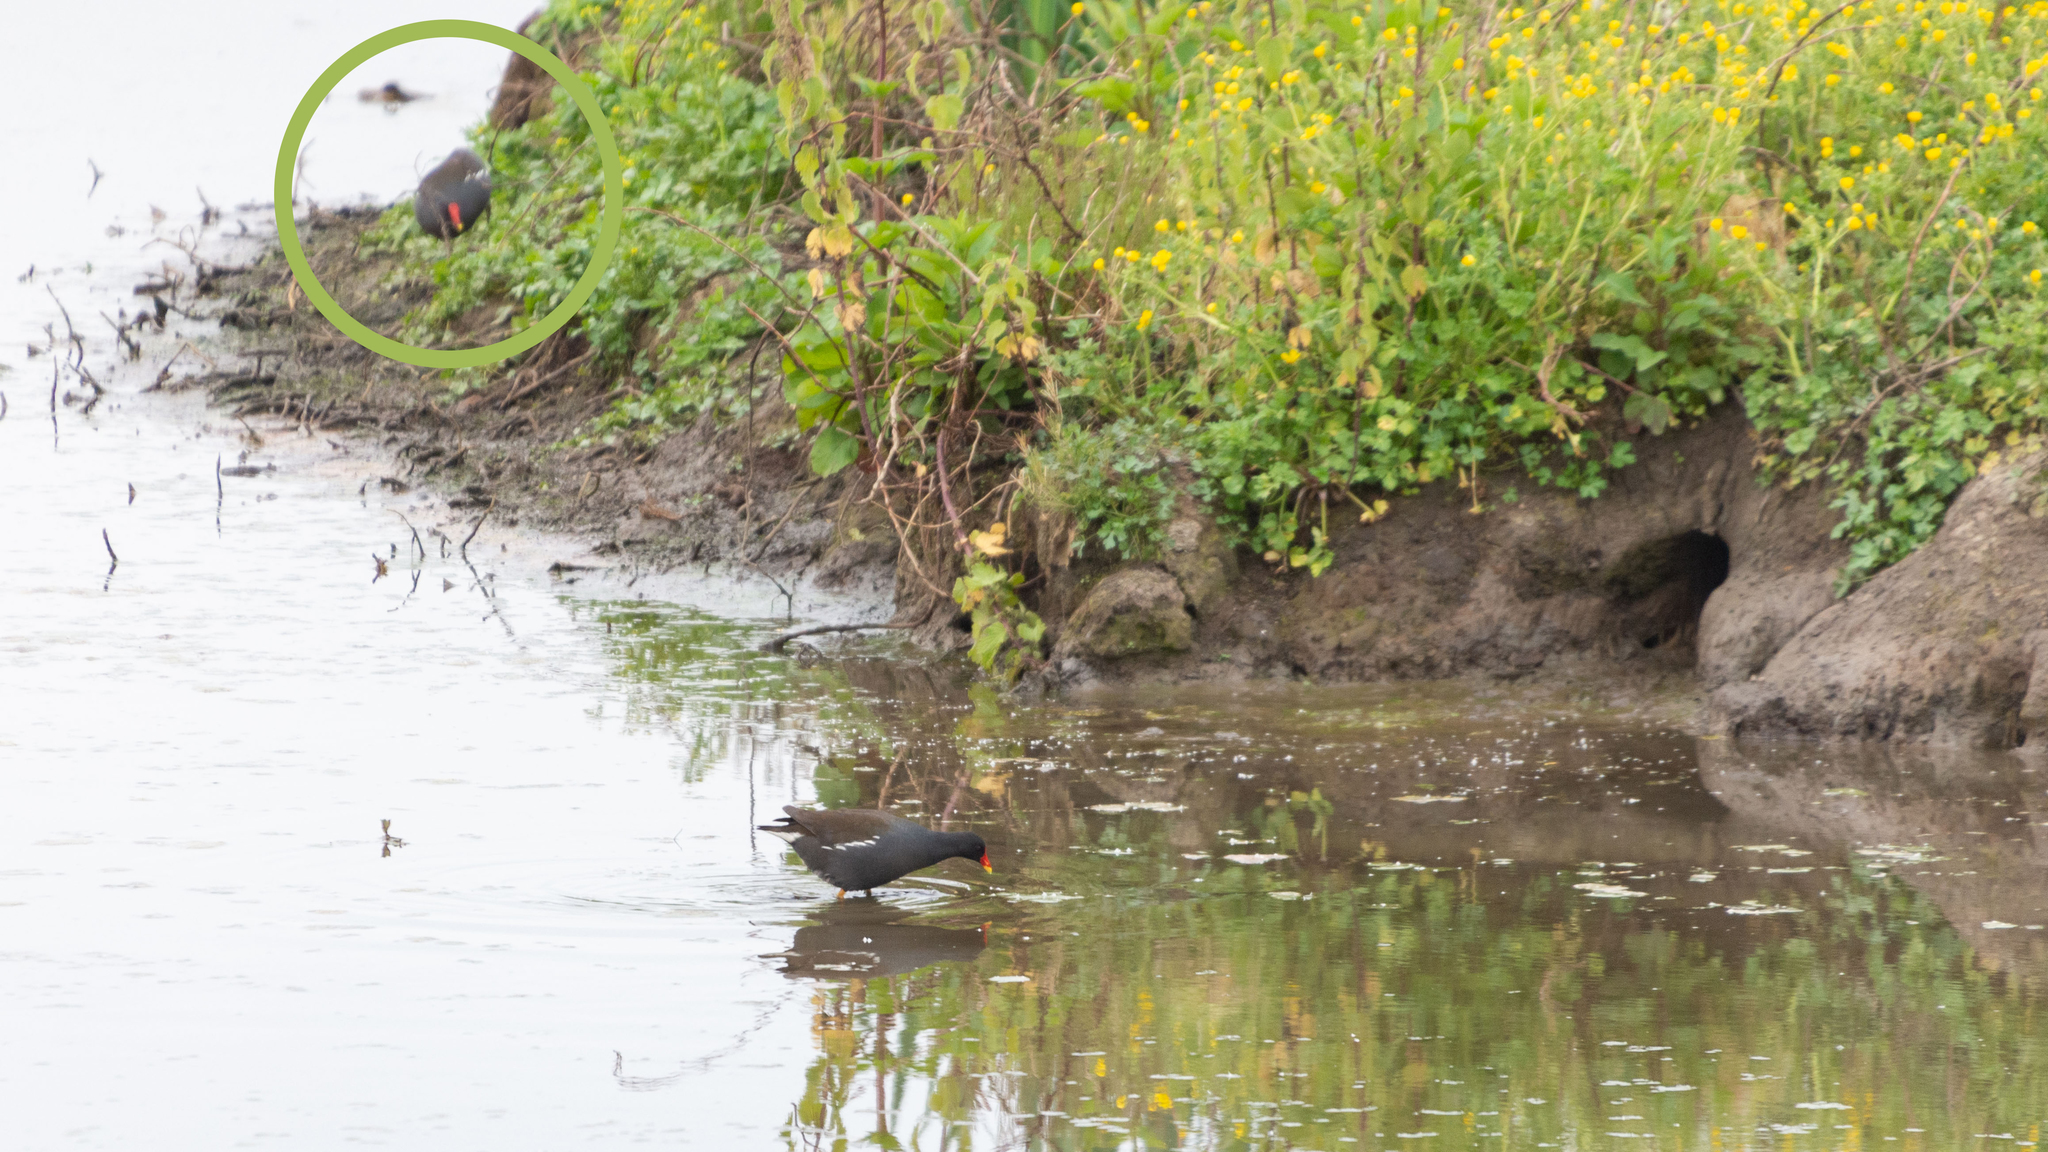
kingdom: Animalia
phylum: Chordata
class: Aves
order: Gruiformes
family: Rallidae
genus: Gallinula
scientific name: Gallinula chloropus
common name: Common moorhen
